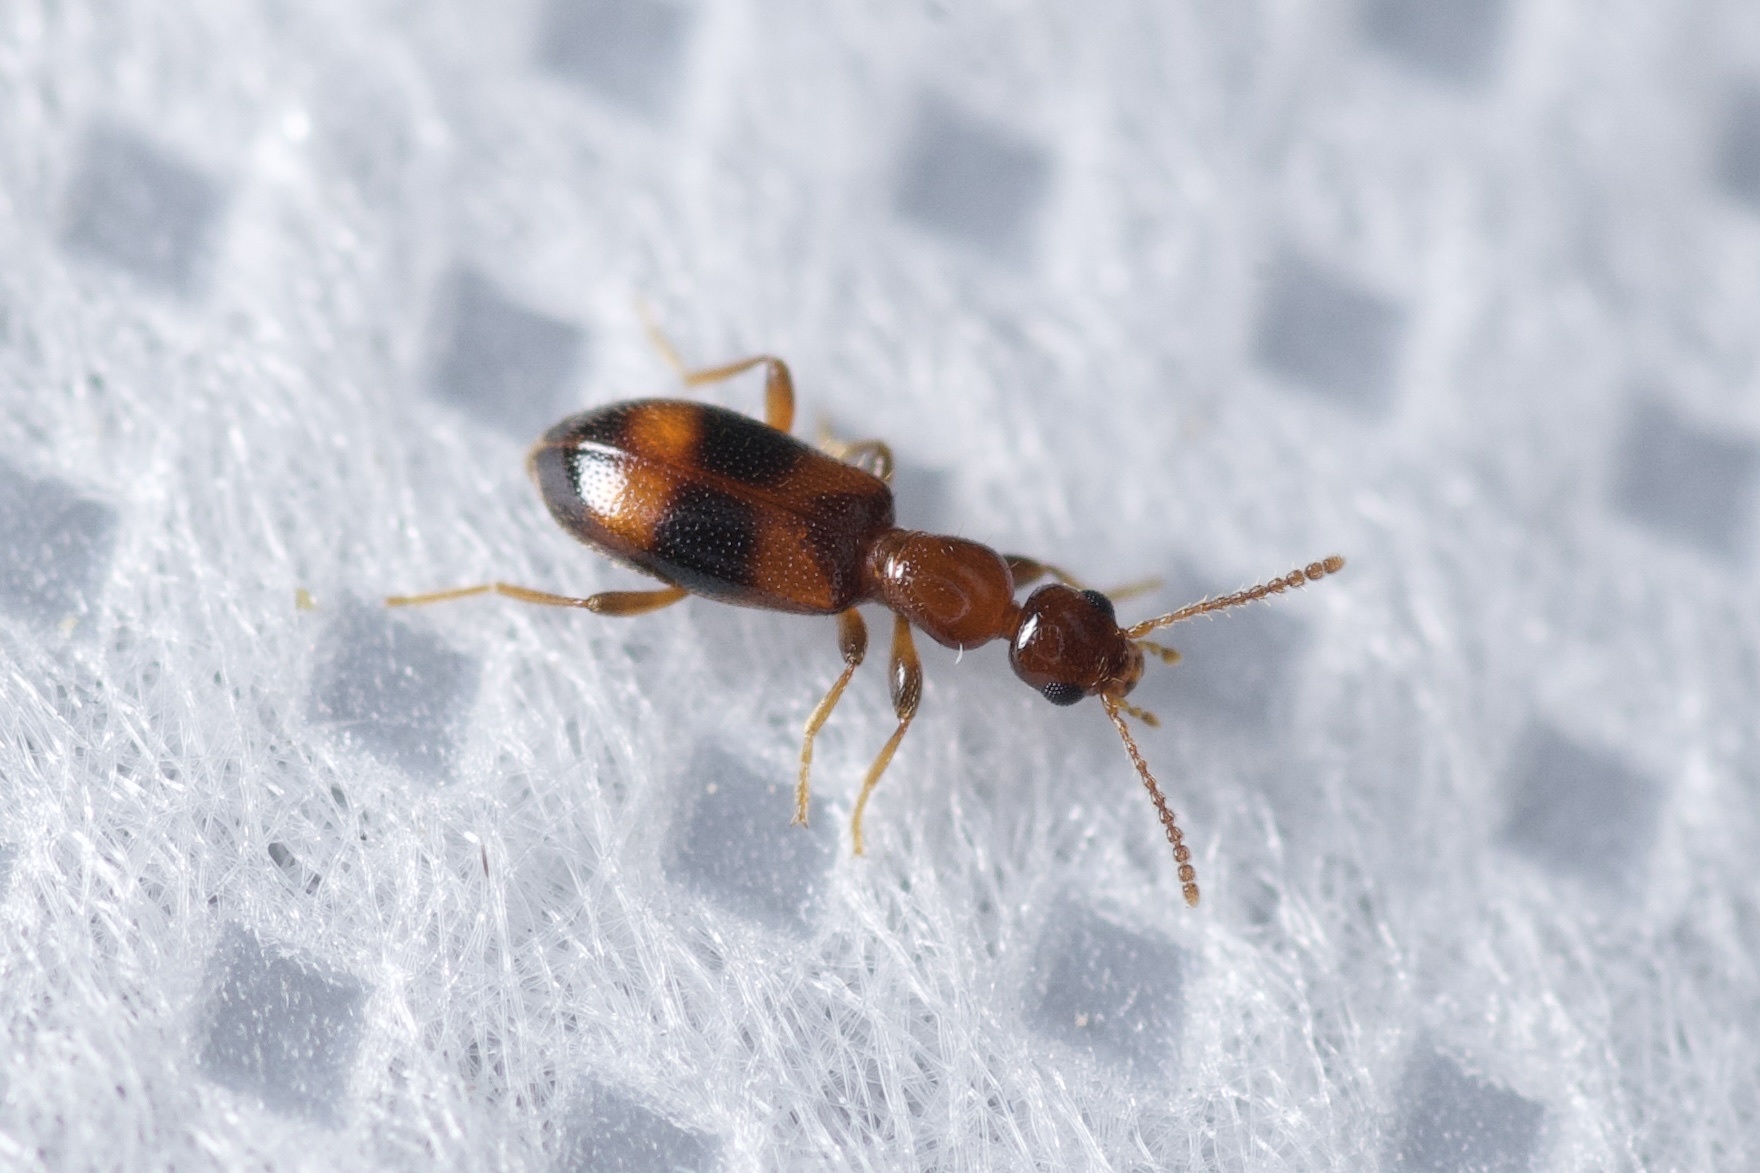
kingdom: Animalia
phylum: Arthropoda
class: Insecta
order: Coleoptera
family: Anthicidae
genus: Vacusus
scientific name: Vacusus vicinus
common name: Antlike flower beetle
